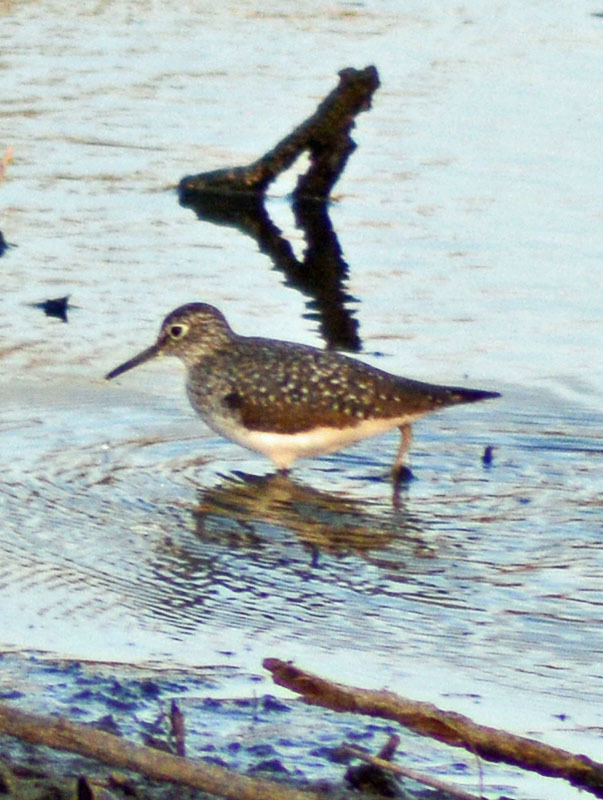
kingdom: Animalia
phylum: Chordata
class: Aves
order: Charadriiformes
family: Scolopacidae
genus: Tringa
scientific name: Tringa solitaria
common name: Solitary sandpiper
